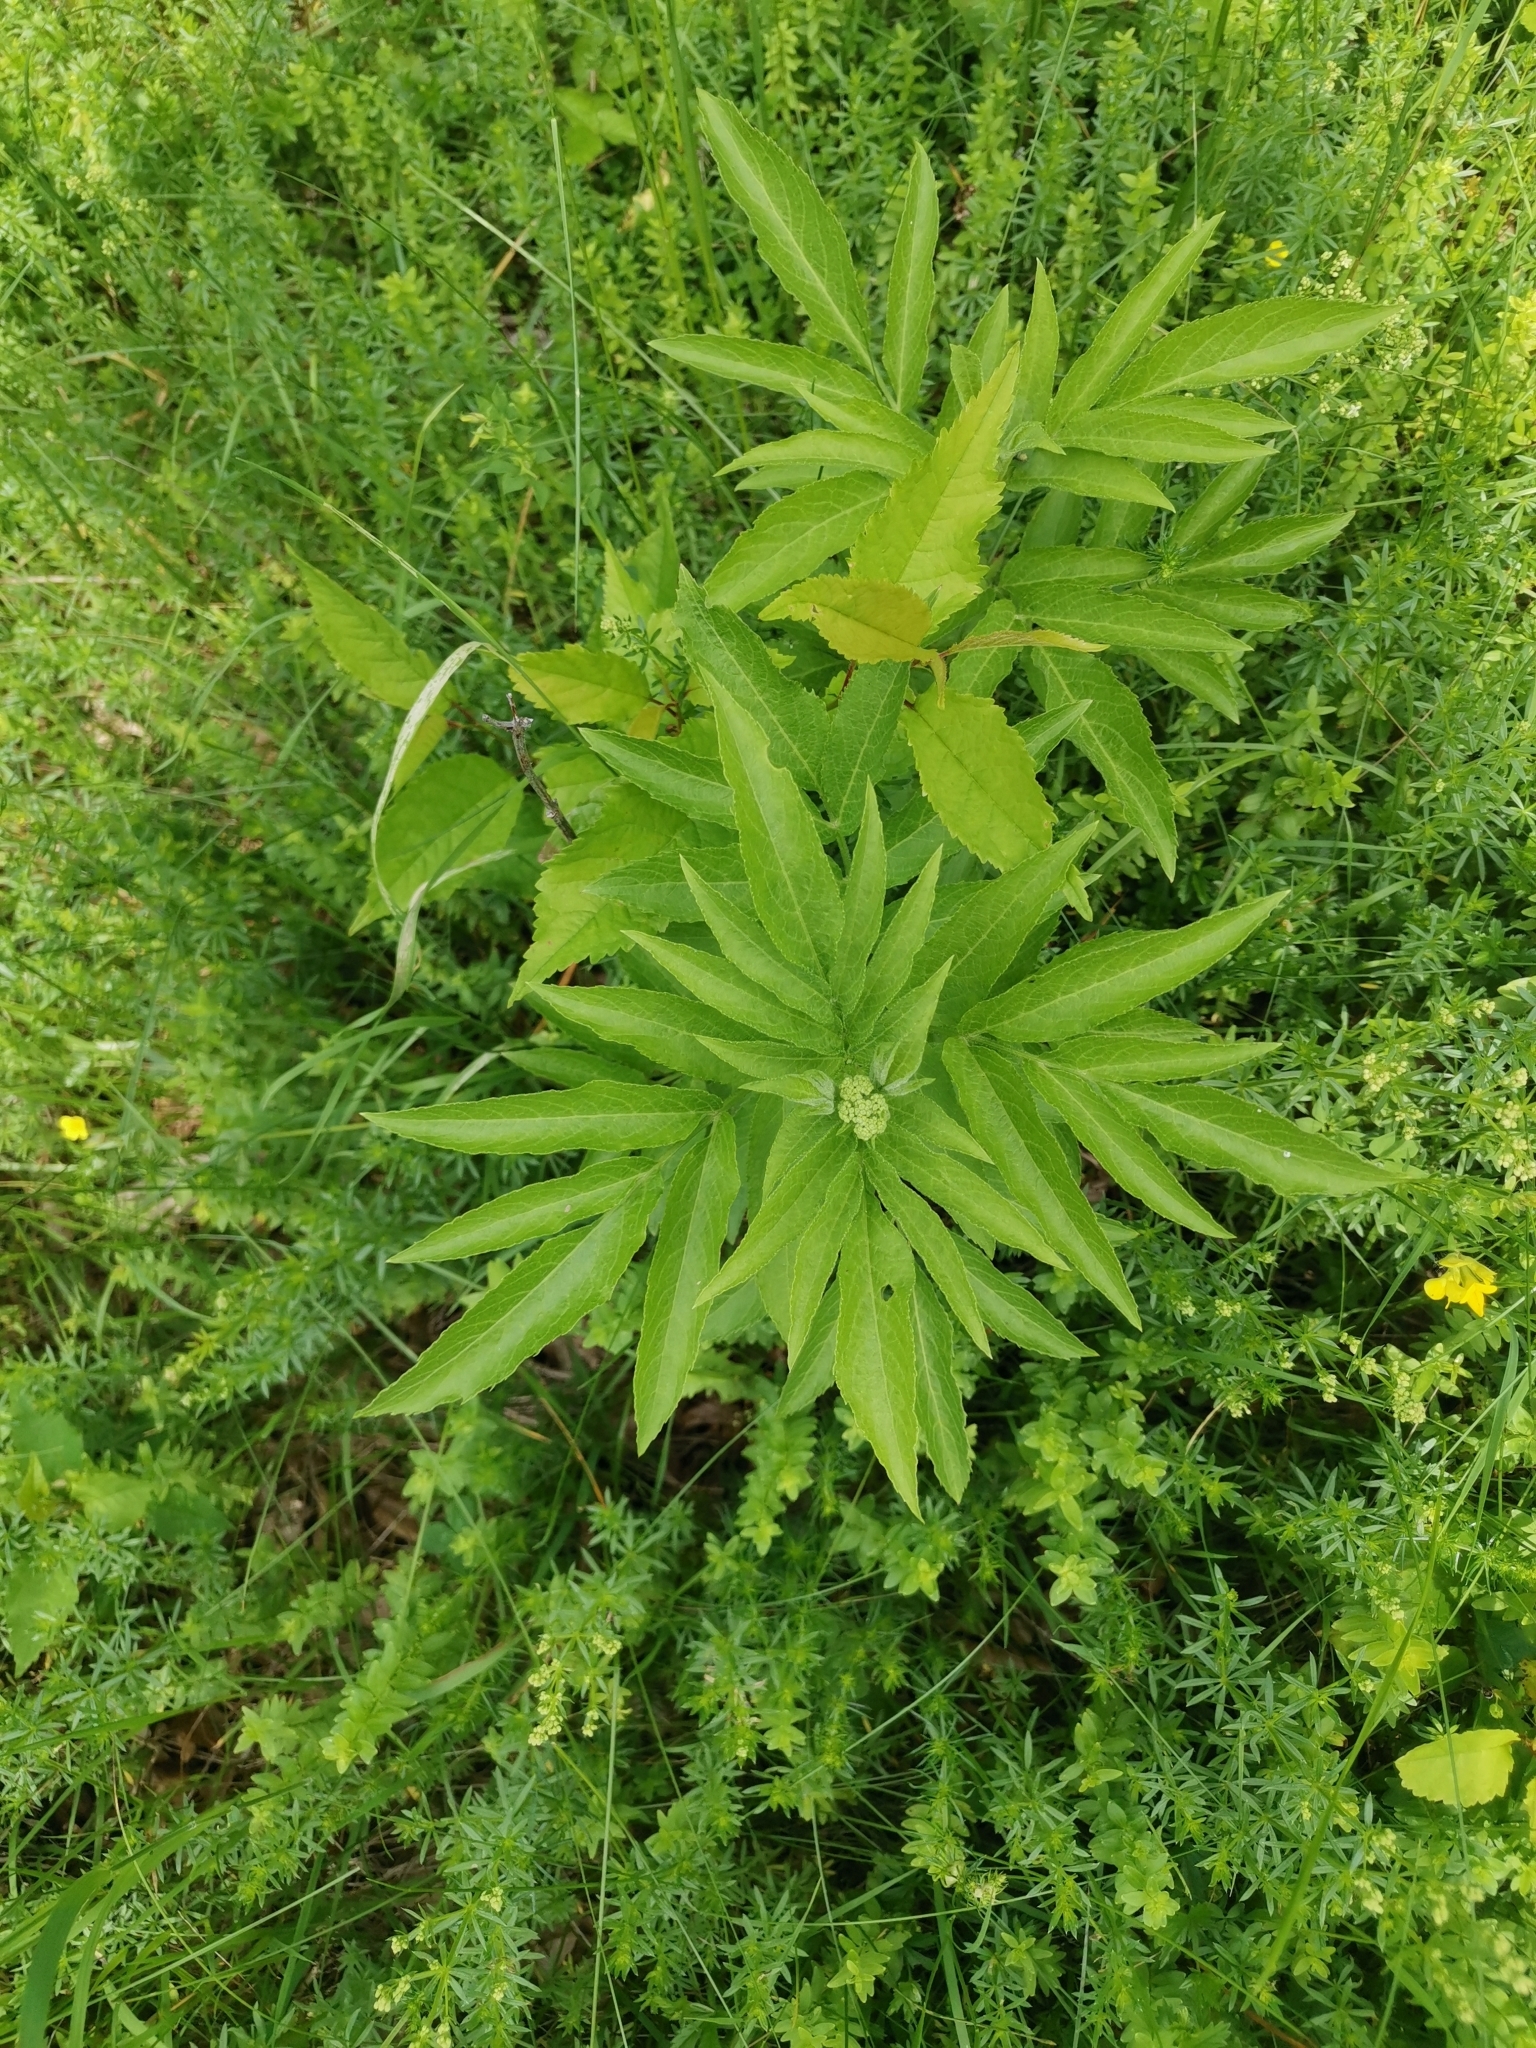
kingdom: Plantae
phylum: Tracheophyta
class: Magnoliopsida
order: Dipsacales
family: Viburnaceae
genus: Sambucus
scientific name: Sambucus ebulus
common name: Dwarf elder
